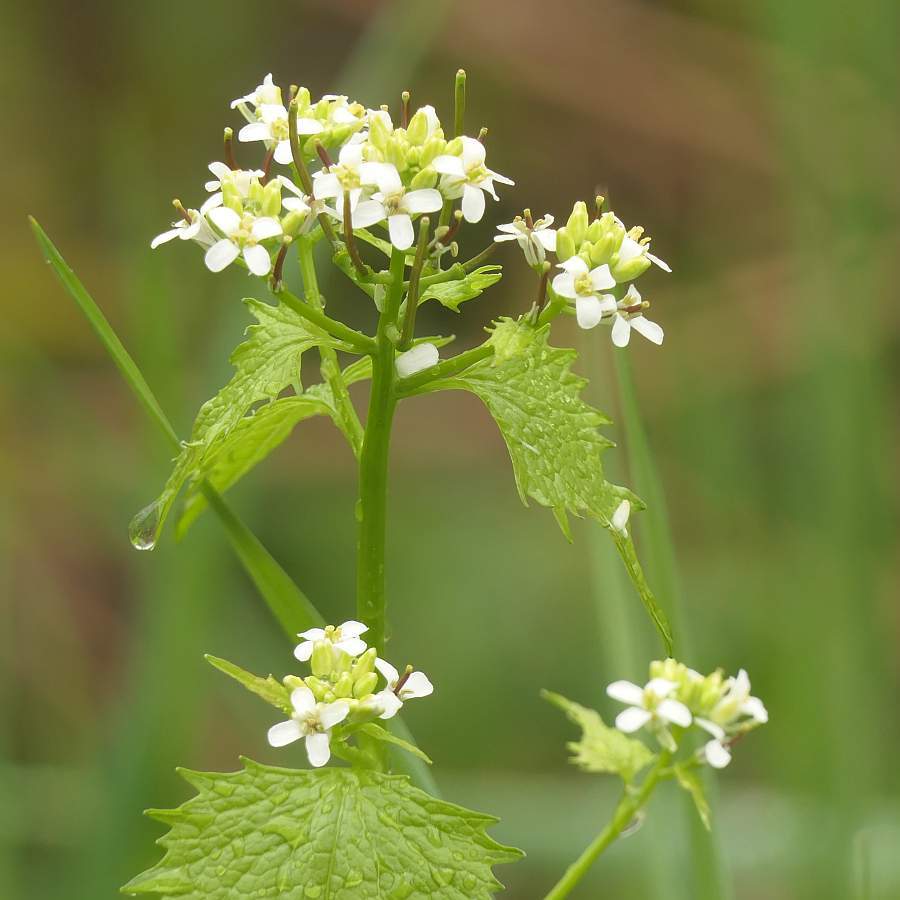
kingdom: Plantae
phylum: Tracheophyta
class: Magnoliopsida
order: Brassicales
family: Brassicaceae
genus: Alliaria
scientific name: Alliaria petiolata
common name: Garlic mustard
